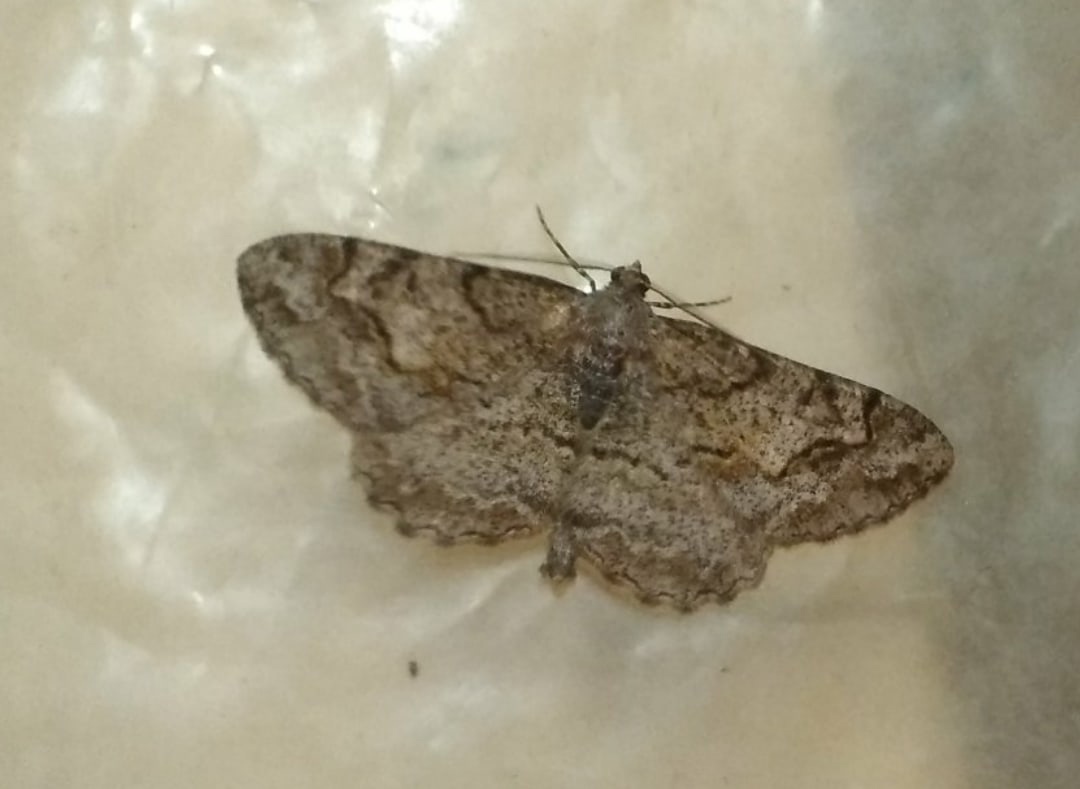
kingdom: Animalia
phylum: Arthropoda
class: Insecta
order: Lepidoptera
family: Geometridae
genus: Alcis
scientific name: Alcis repandata
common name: Mottled beauty
